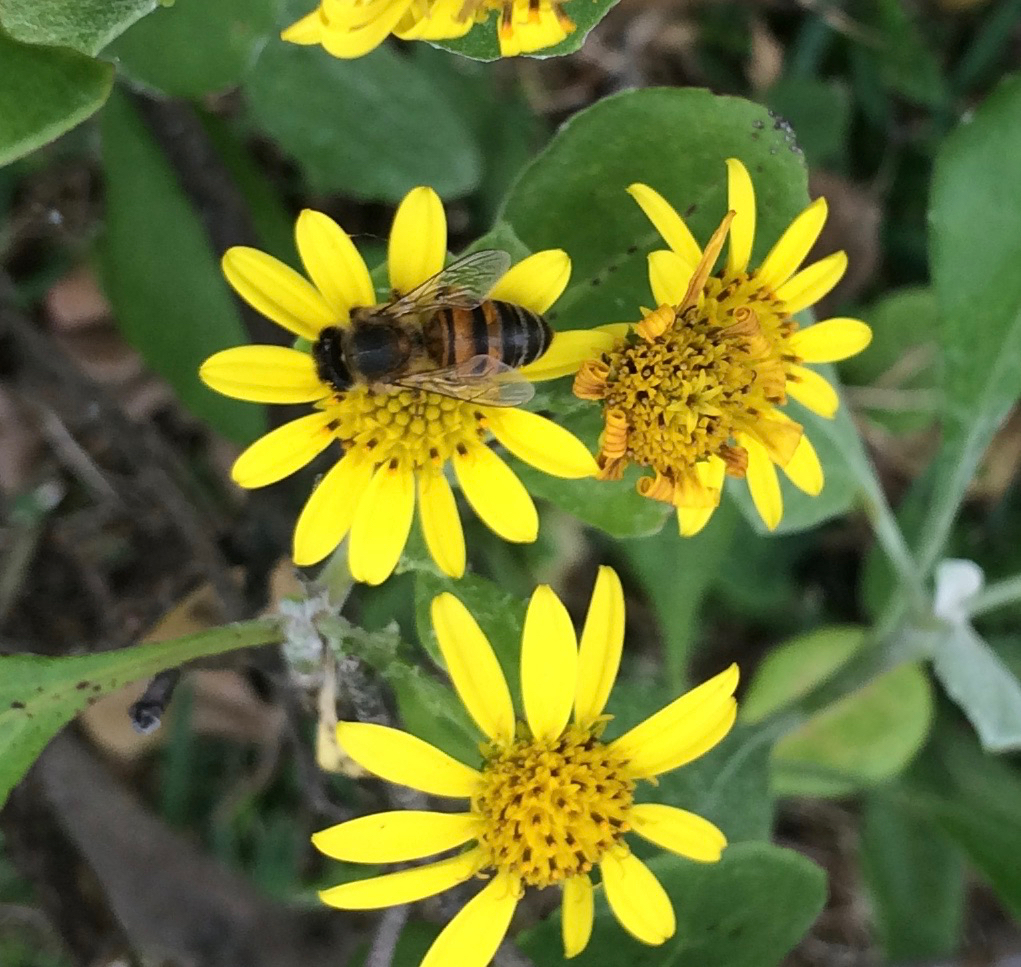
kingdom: Animalia
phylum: Arthropoda
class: Insecta
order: Hymenoptera
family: Apidae
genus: Apis
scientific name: Apis mellifera
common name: Honey bee
